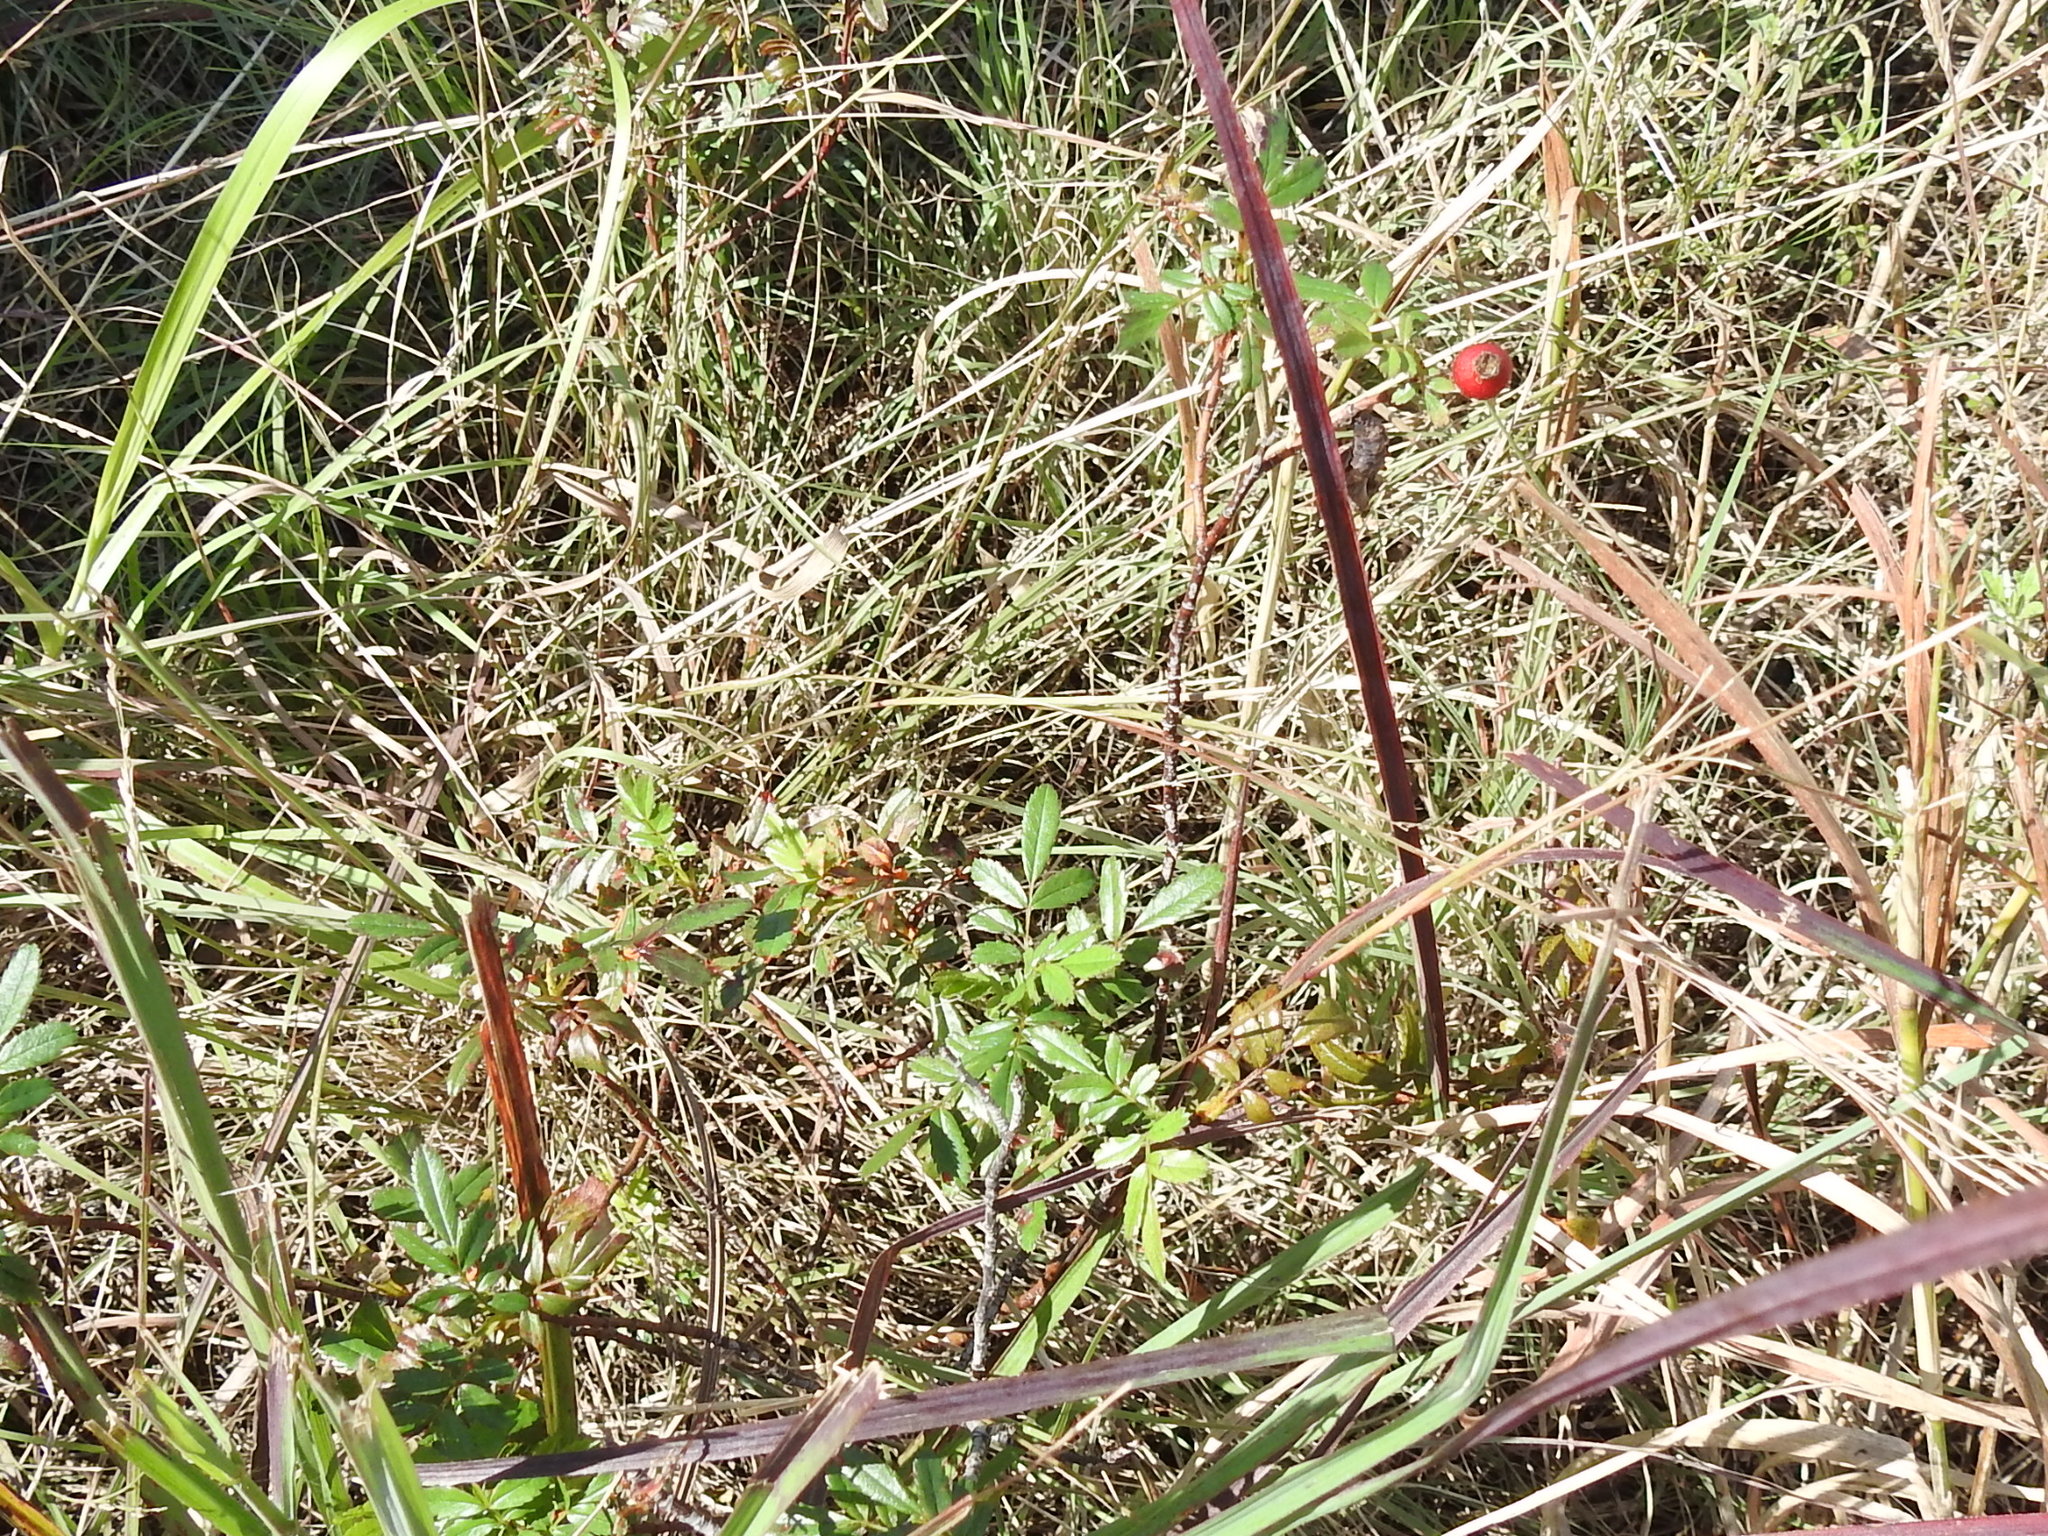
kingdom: Plantae
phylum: Tracheophyta
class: Magnoliopsida
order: Rosales
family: Rosaceae
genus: Rosa
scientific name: Rosa foliolosa
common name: White prairie rose
